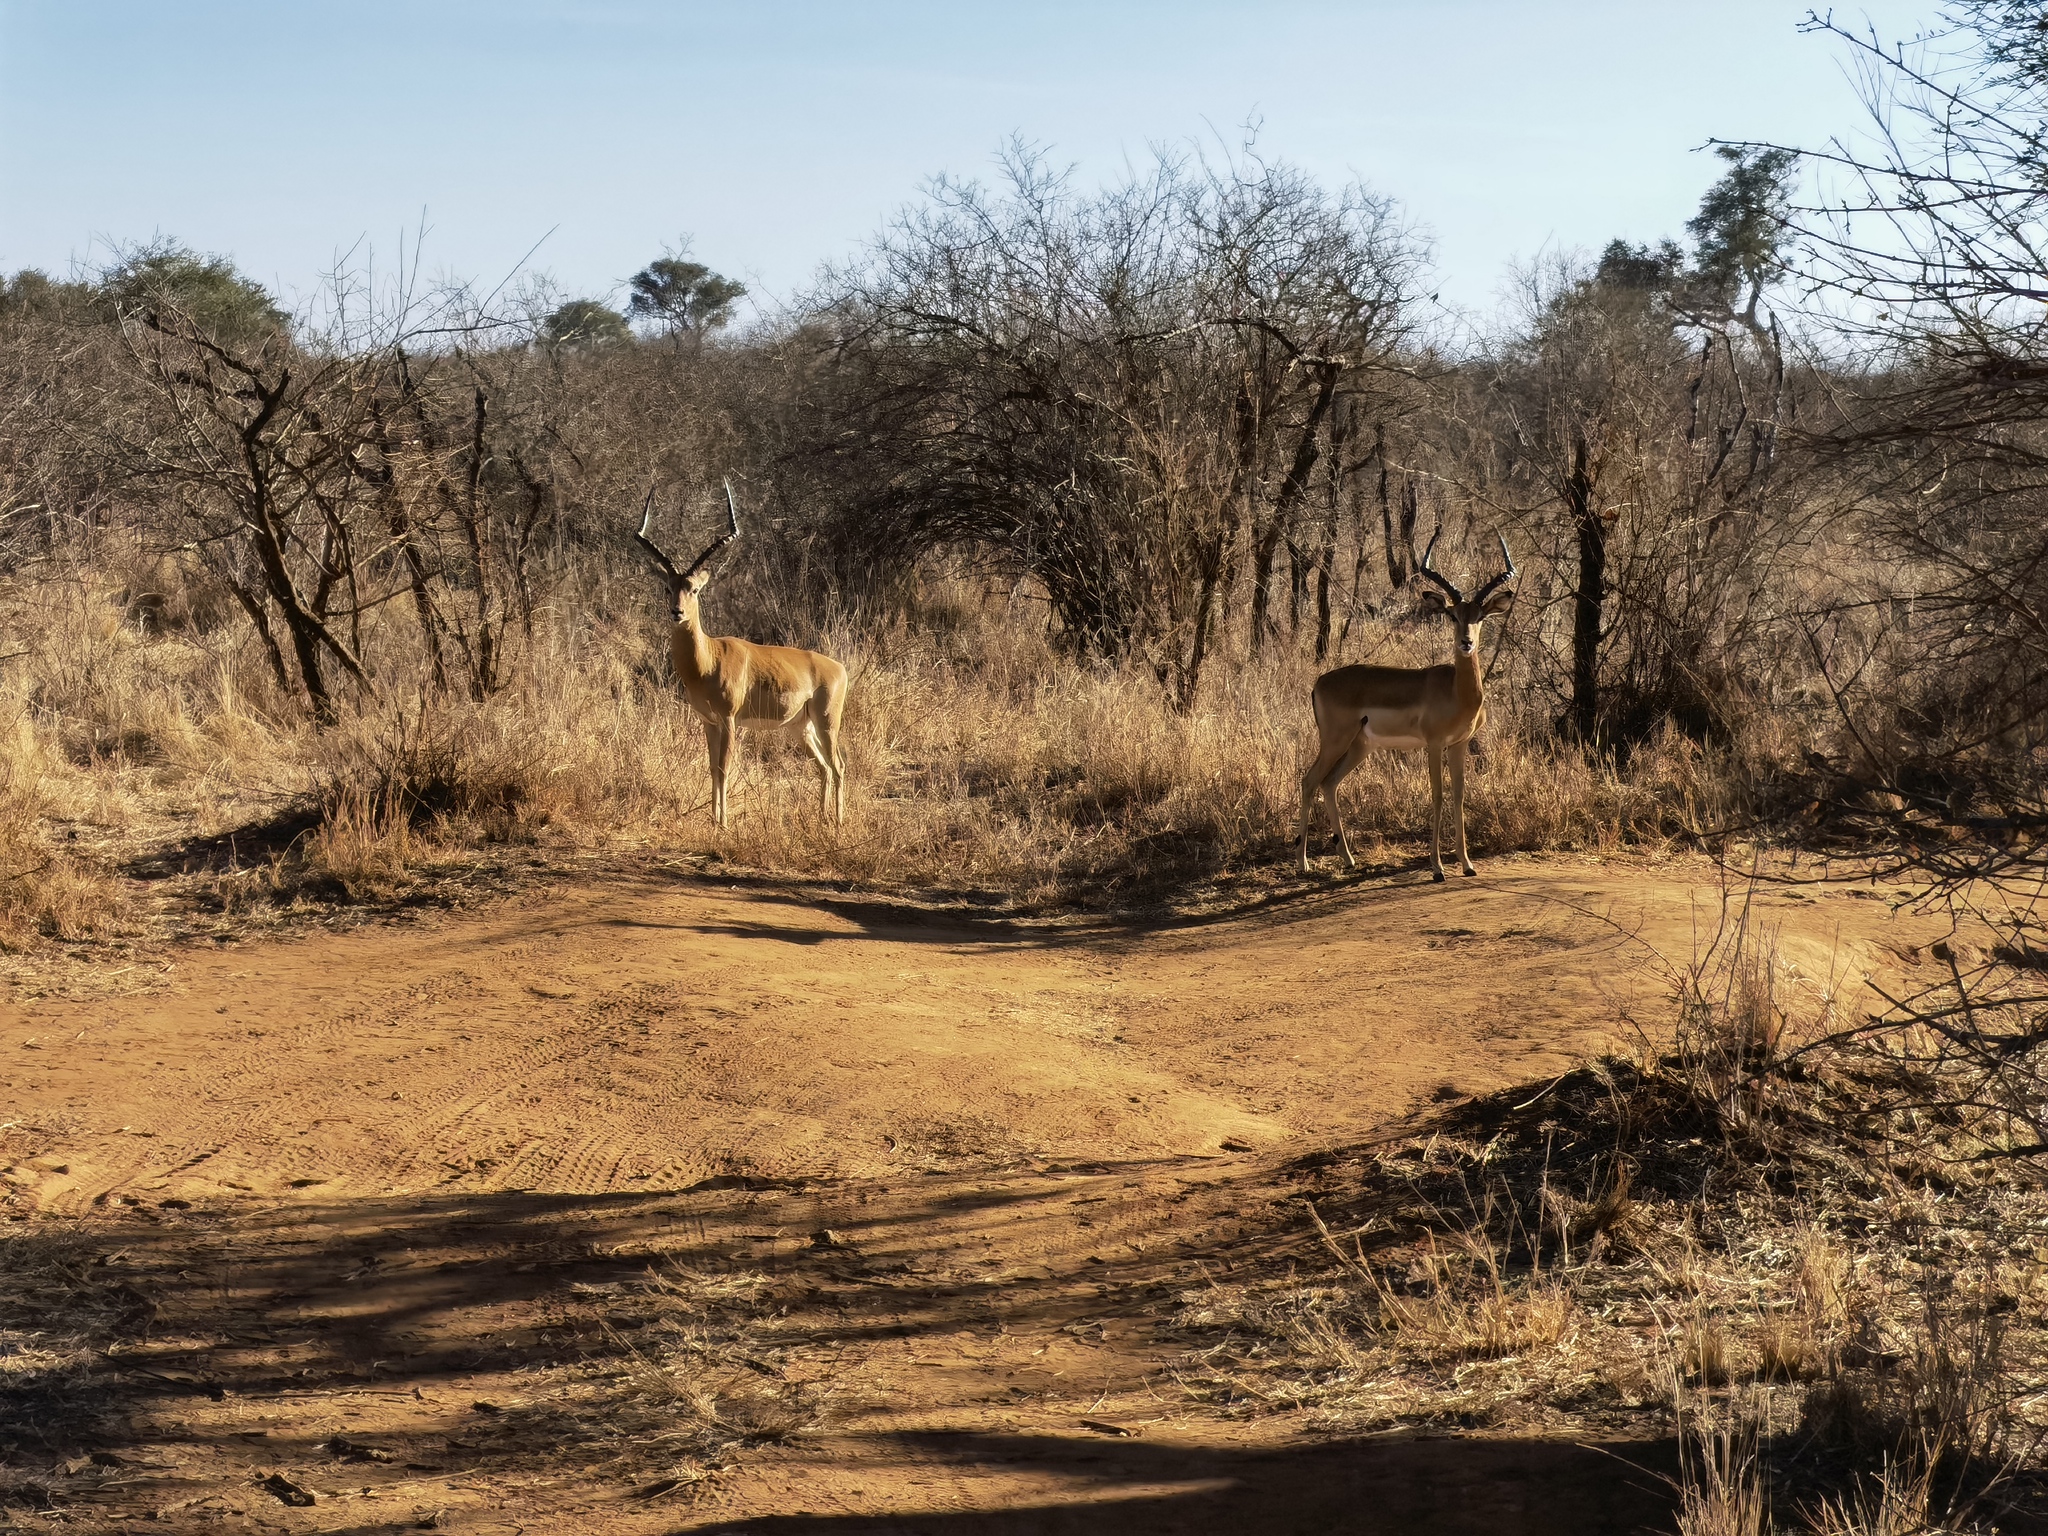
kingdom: Animalia
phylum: Chordata
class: Mammalia
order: Artiodactyla
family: Bovidae
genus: Aepyceros
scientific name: Aepyceros melampus
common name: Impala
